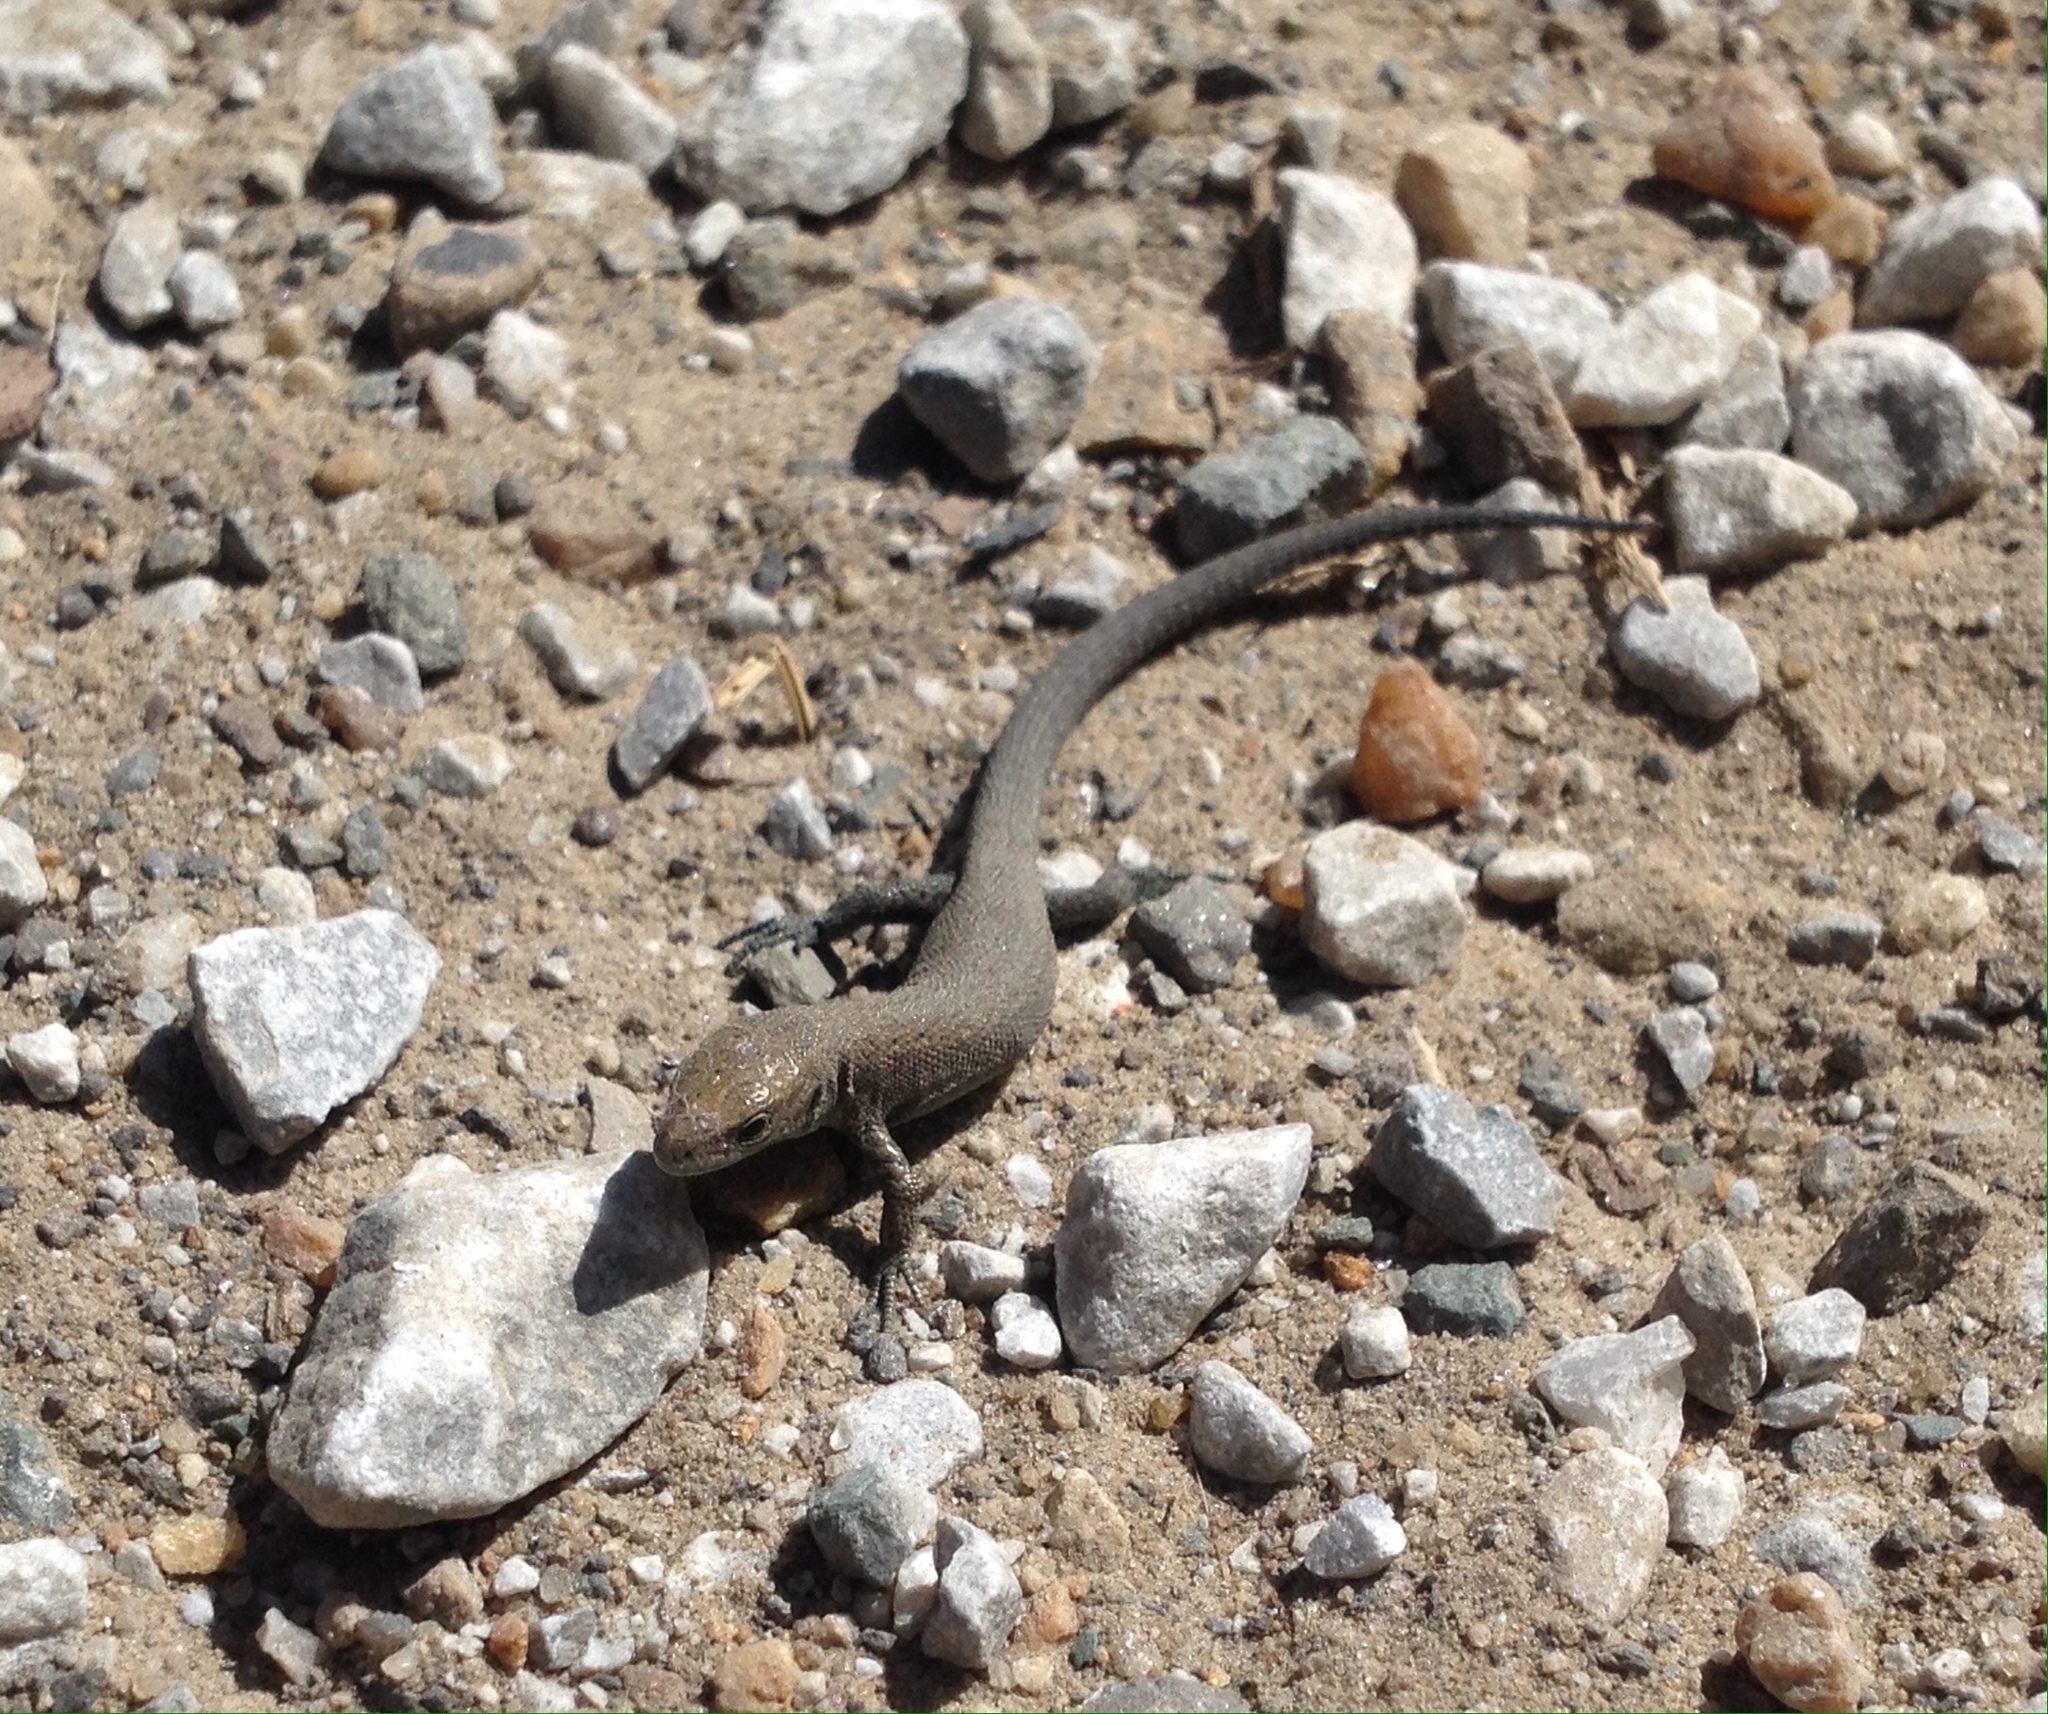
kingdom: Animalia
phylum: Chordata
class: Squamata
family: Lacertidae
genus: Zootoca
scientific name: Zootoca vivipara
